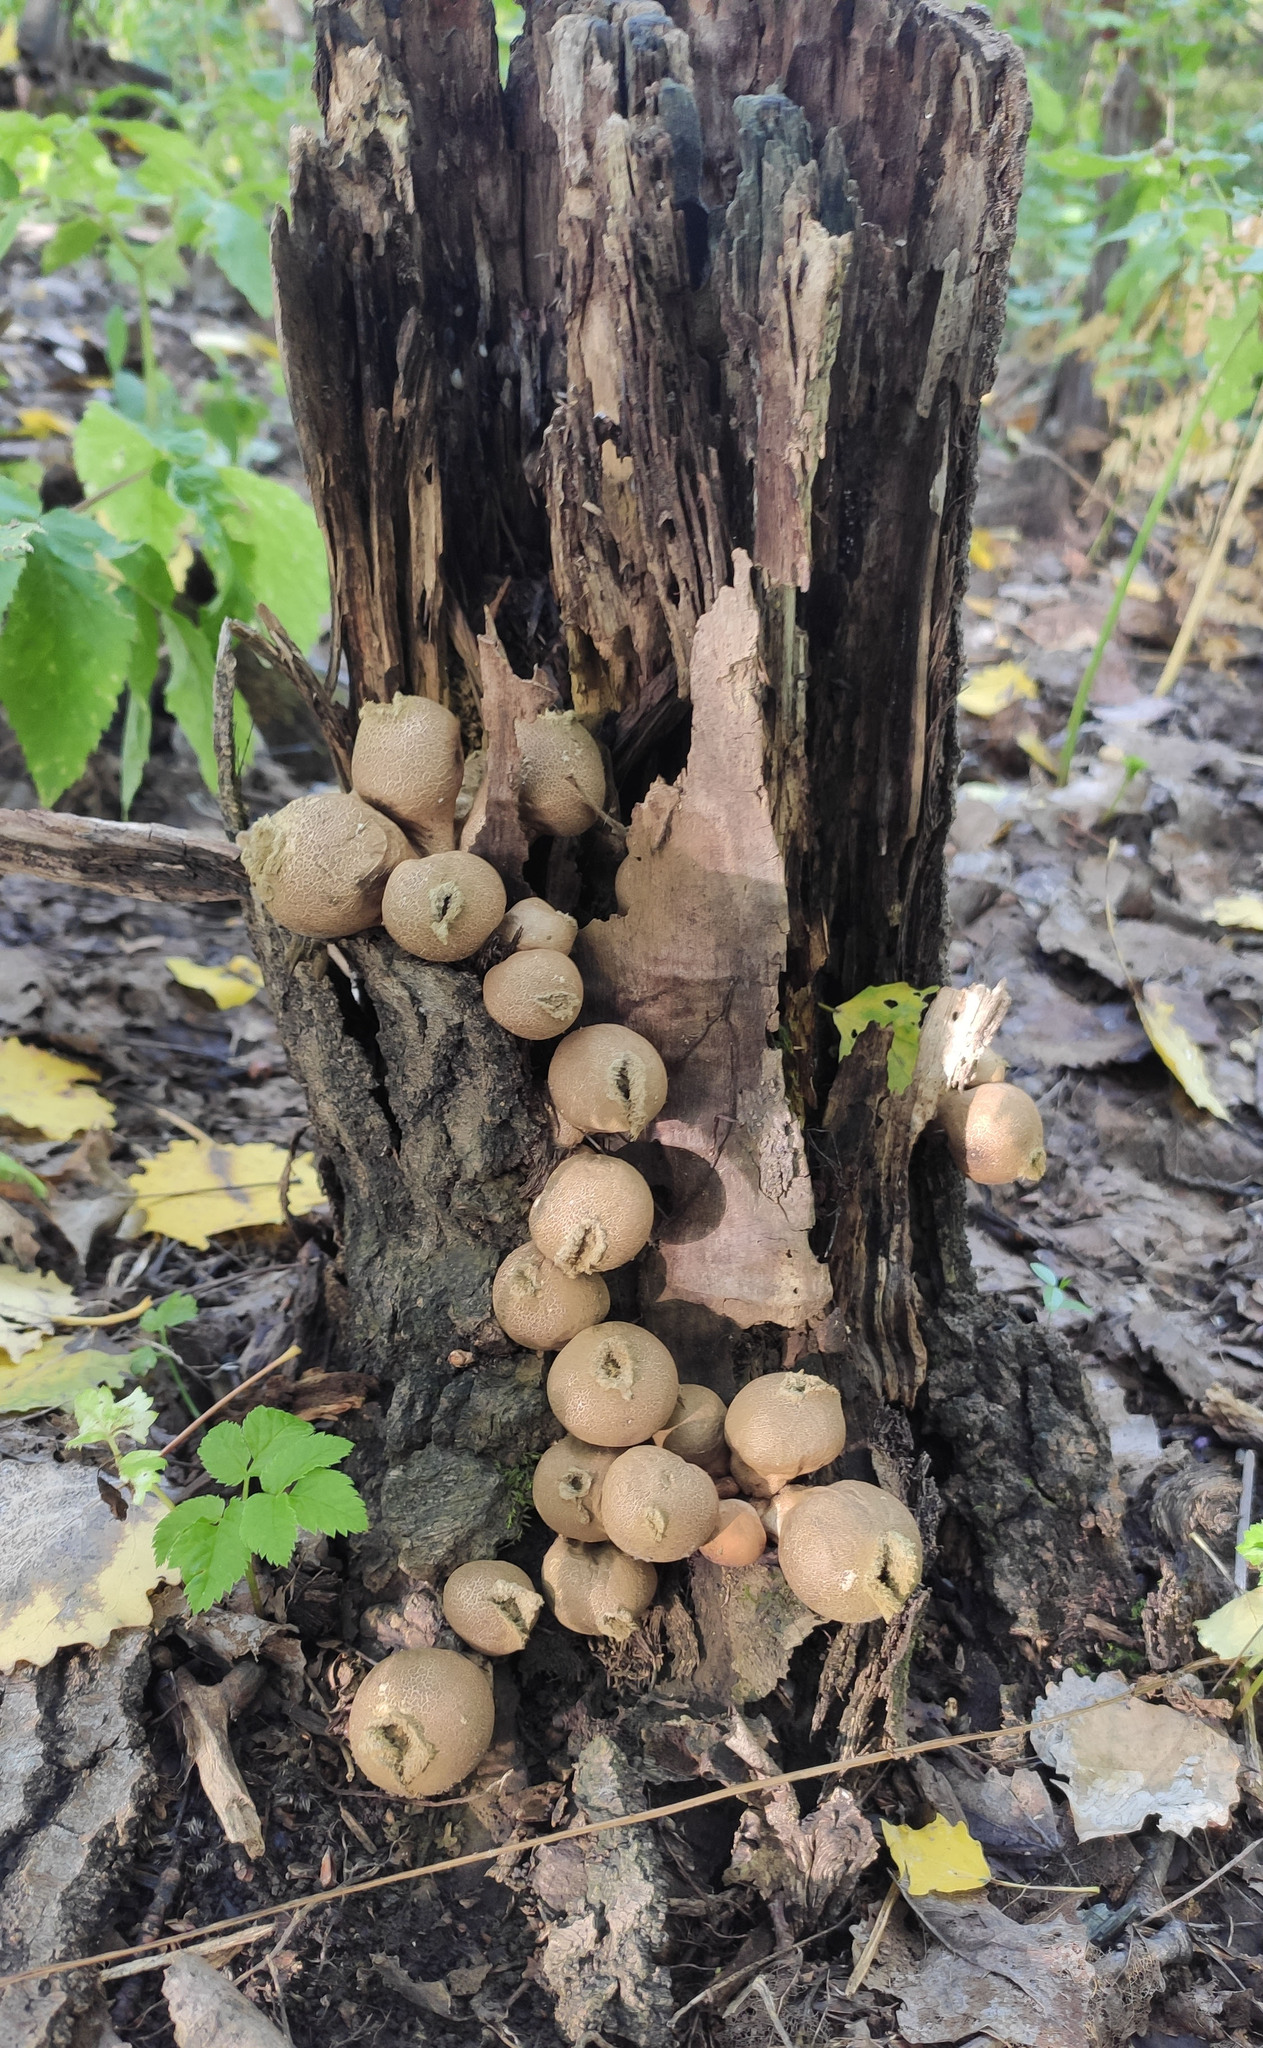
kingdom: Fungi
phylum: Basidiomycota
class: Agaricomycetes
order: Agaricales
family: Lycoperdaceae
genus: Apioperdon
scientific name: Apioperdon pyriforme
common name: Pear-shaped puffball
